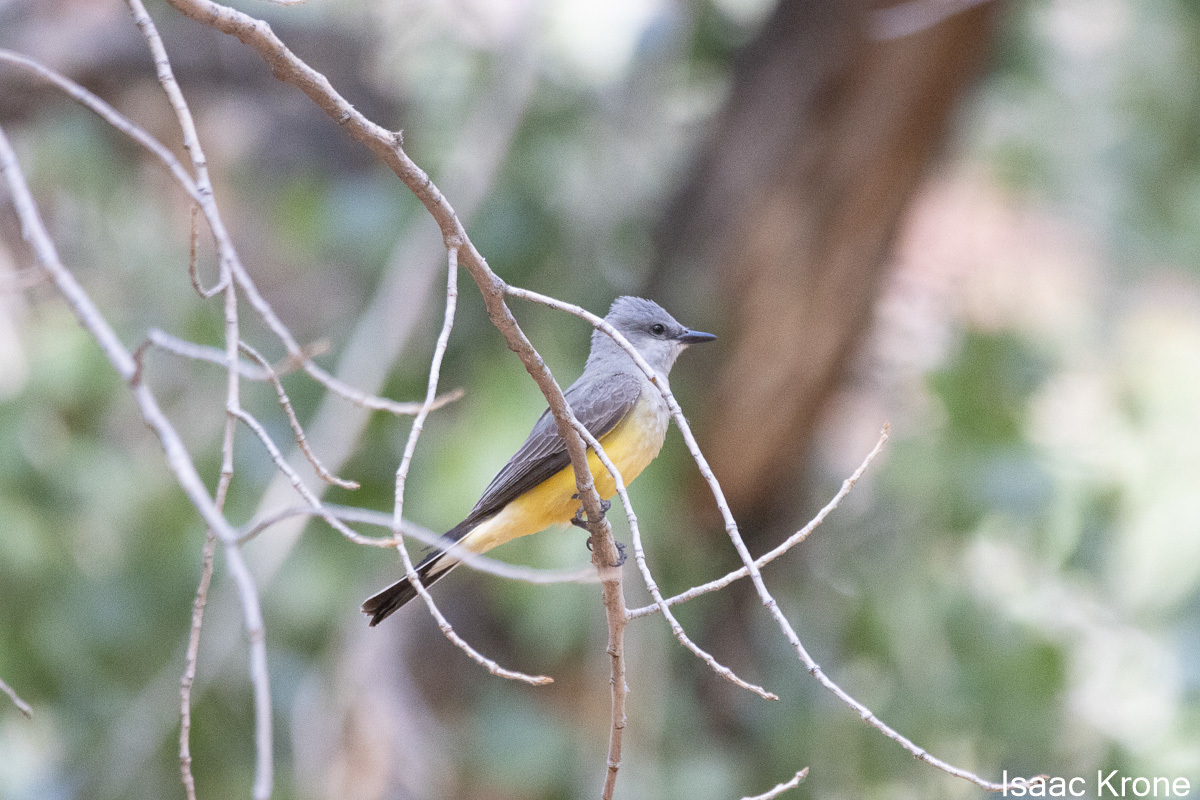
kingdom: Animalia
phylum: Chordata
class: Aves
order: Passeriformes
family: Tyrannidae
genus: Tyrannus
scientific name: Tyrannus verticalis
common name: Western kingbird
